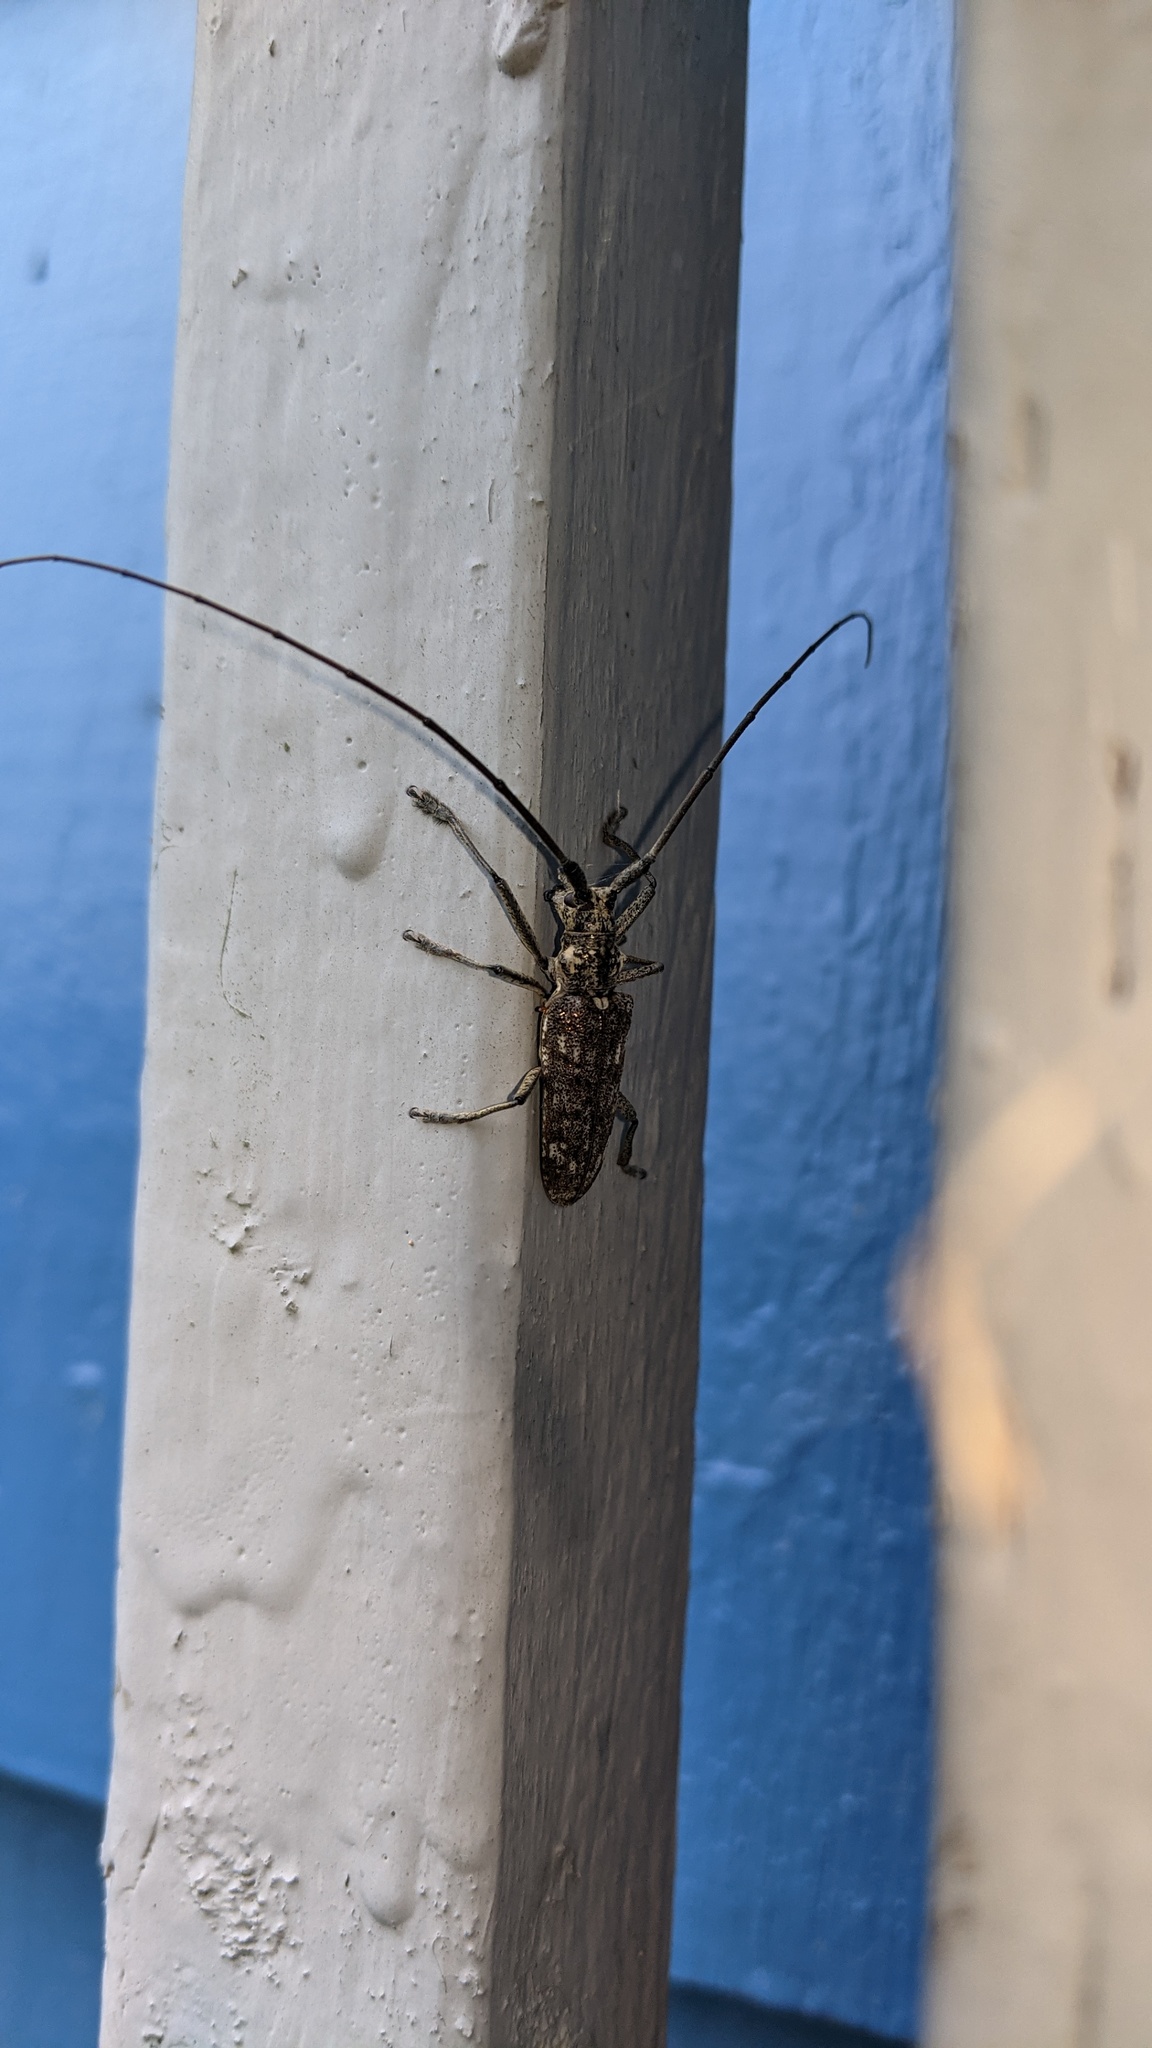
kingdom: Animalia
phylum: Arthropoda
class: Insecta
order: Coleoptera
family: Cerambycidae
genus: Monochamus
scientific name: Monochamus notatus
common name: Northeastern pine sawyer beetle
